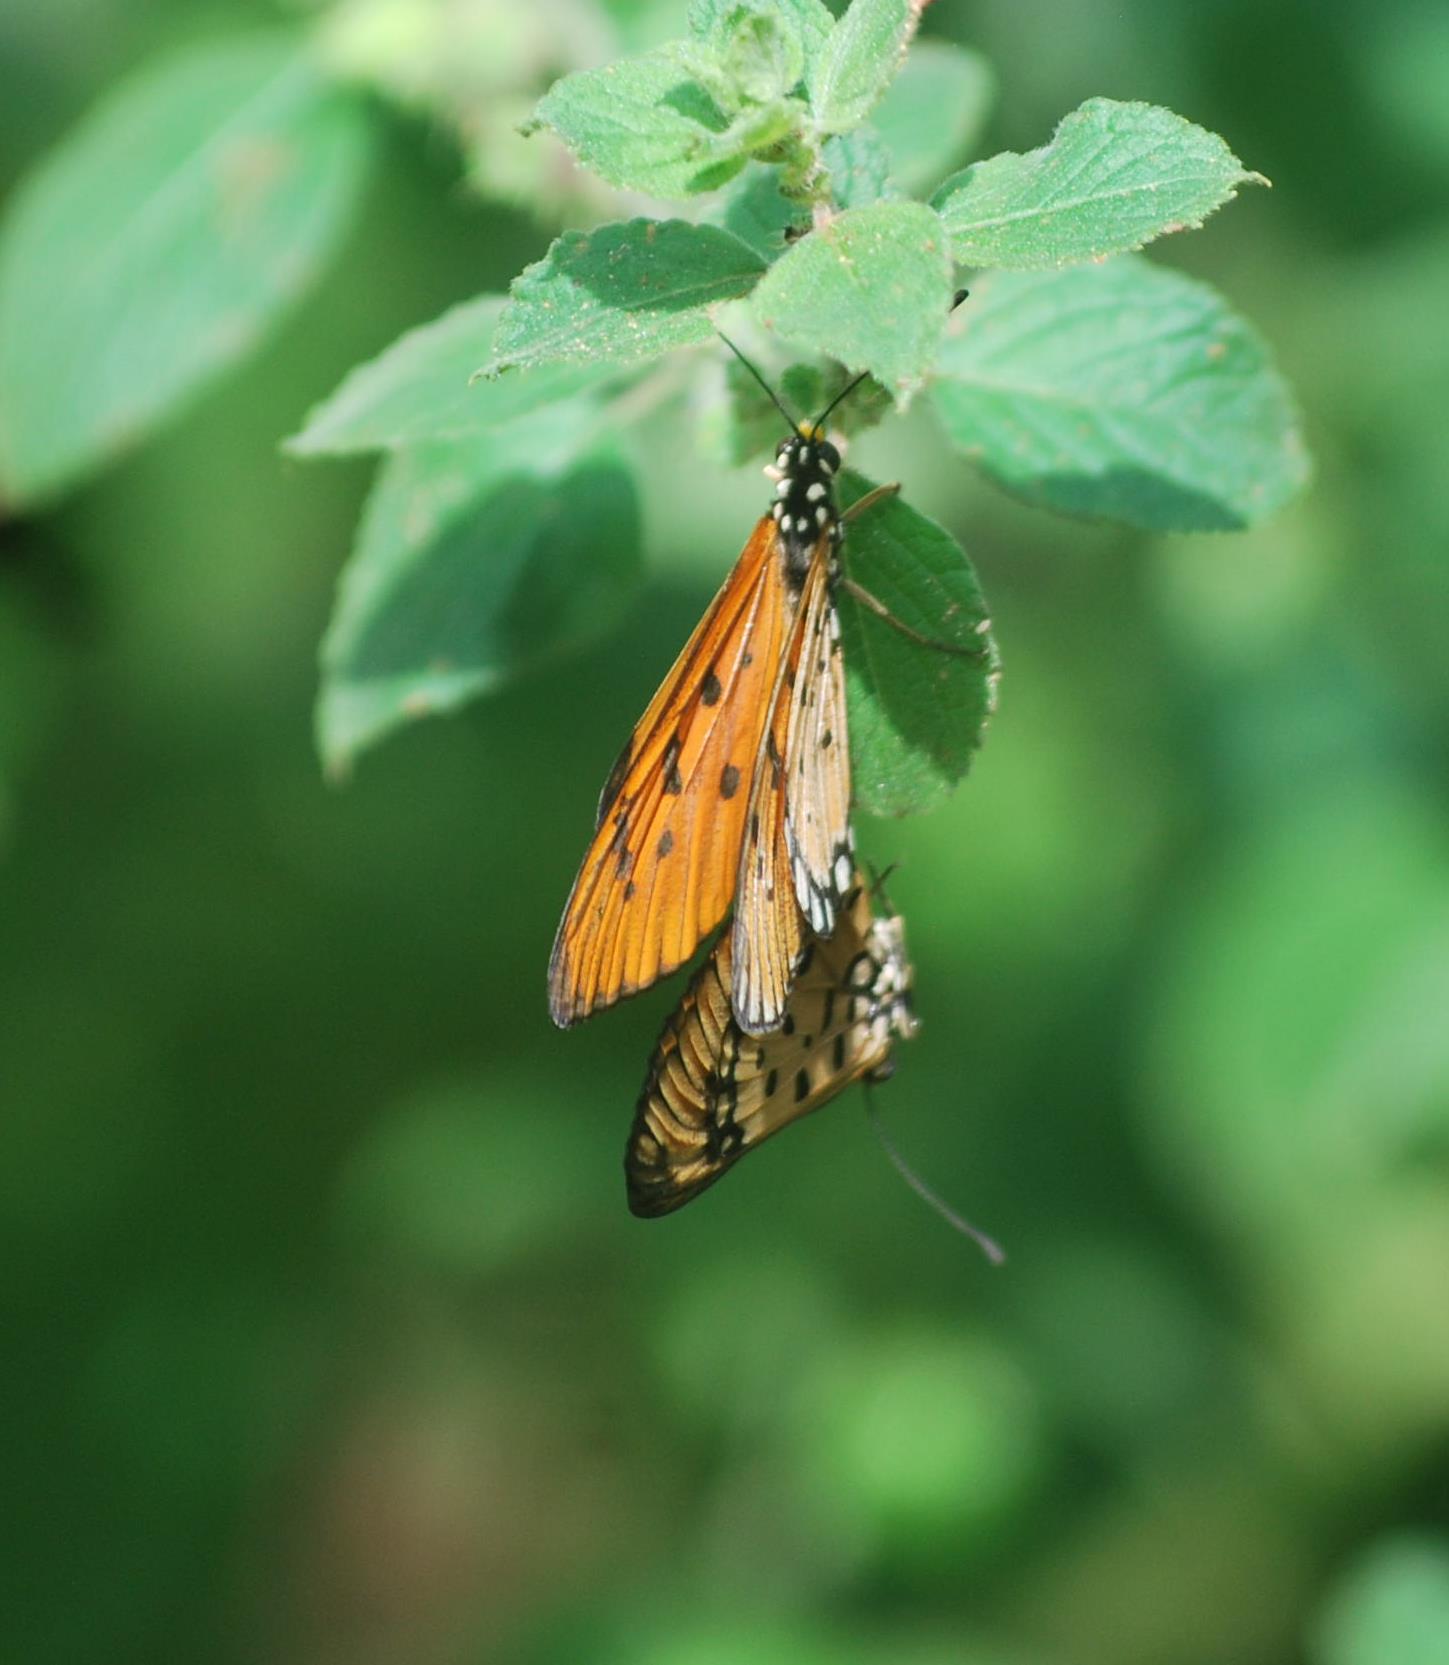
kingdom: Animalia
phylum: Arthropoda
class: Insecta
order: Lepidoptera
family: Nymphalidae
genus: Acraea
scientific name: Acraea terpsicore
